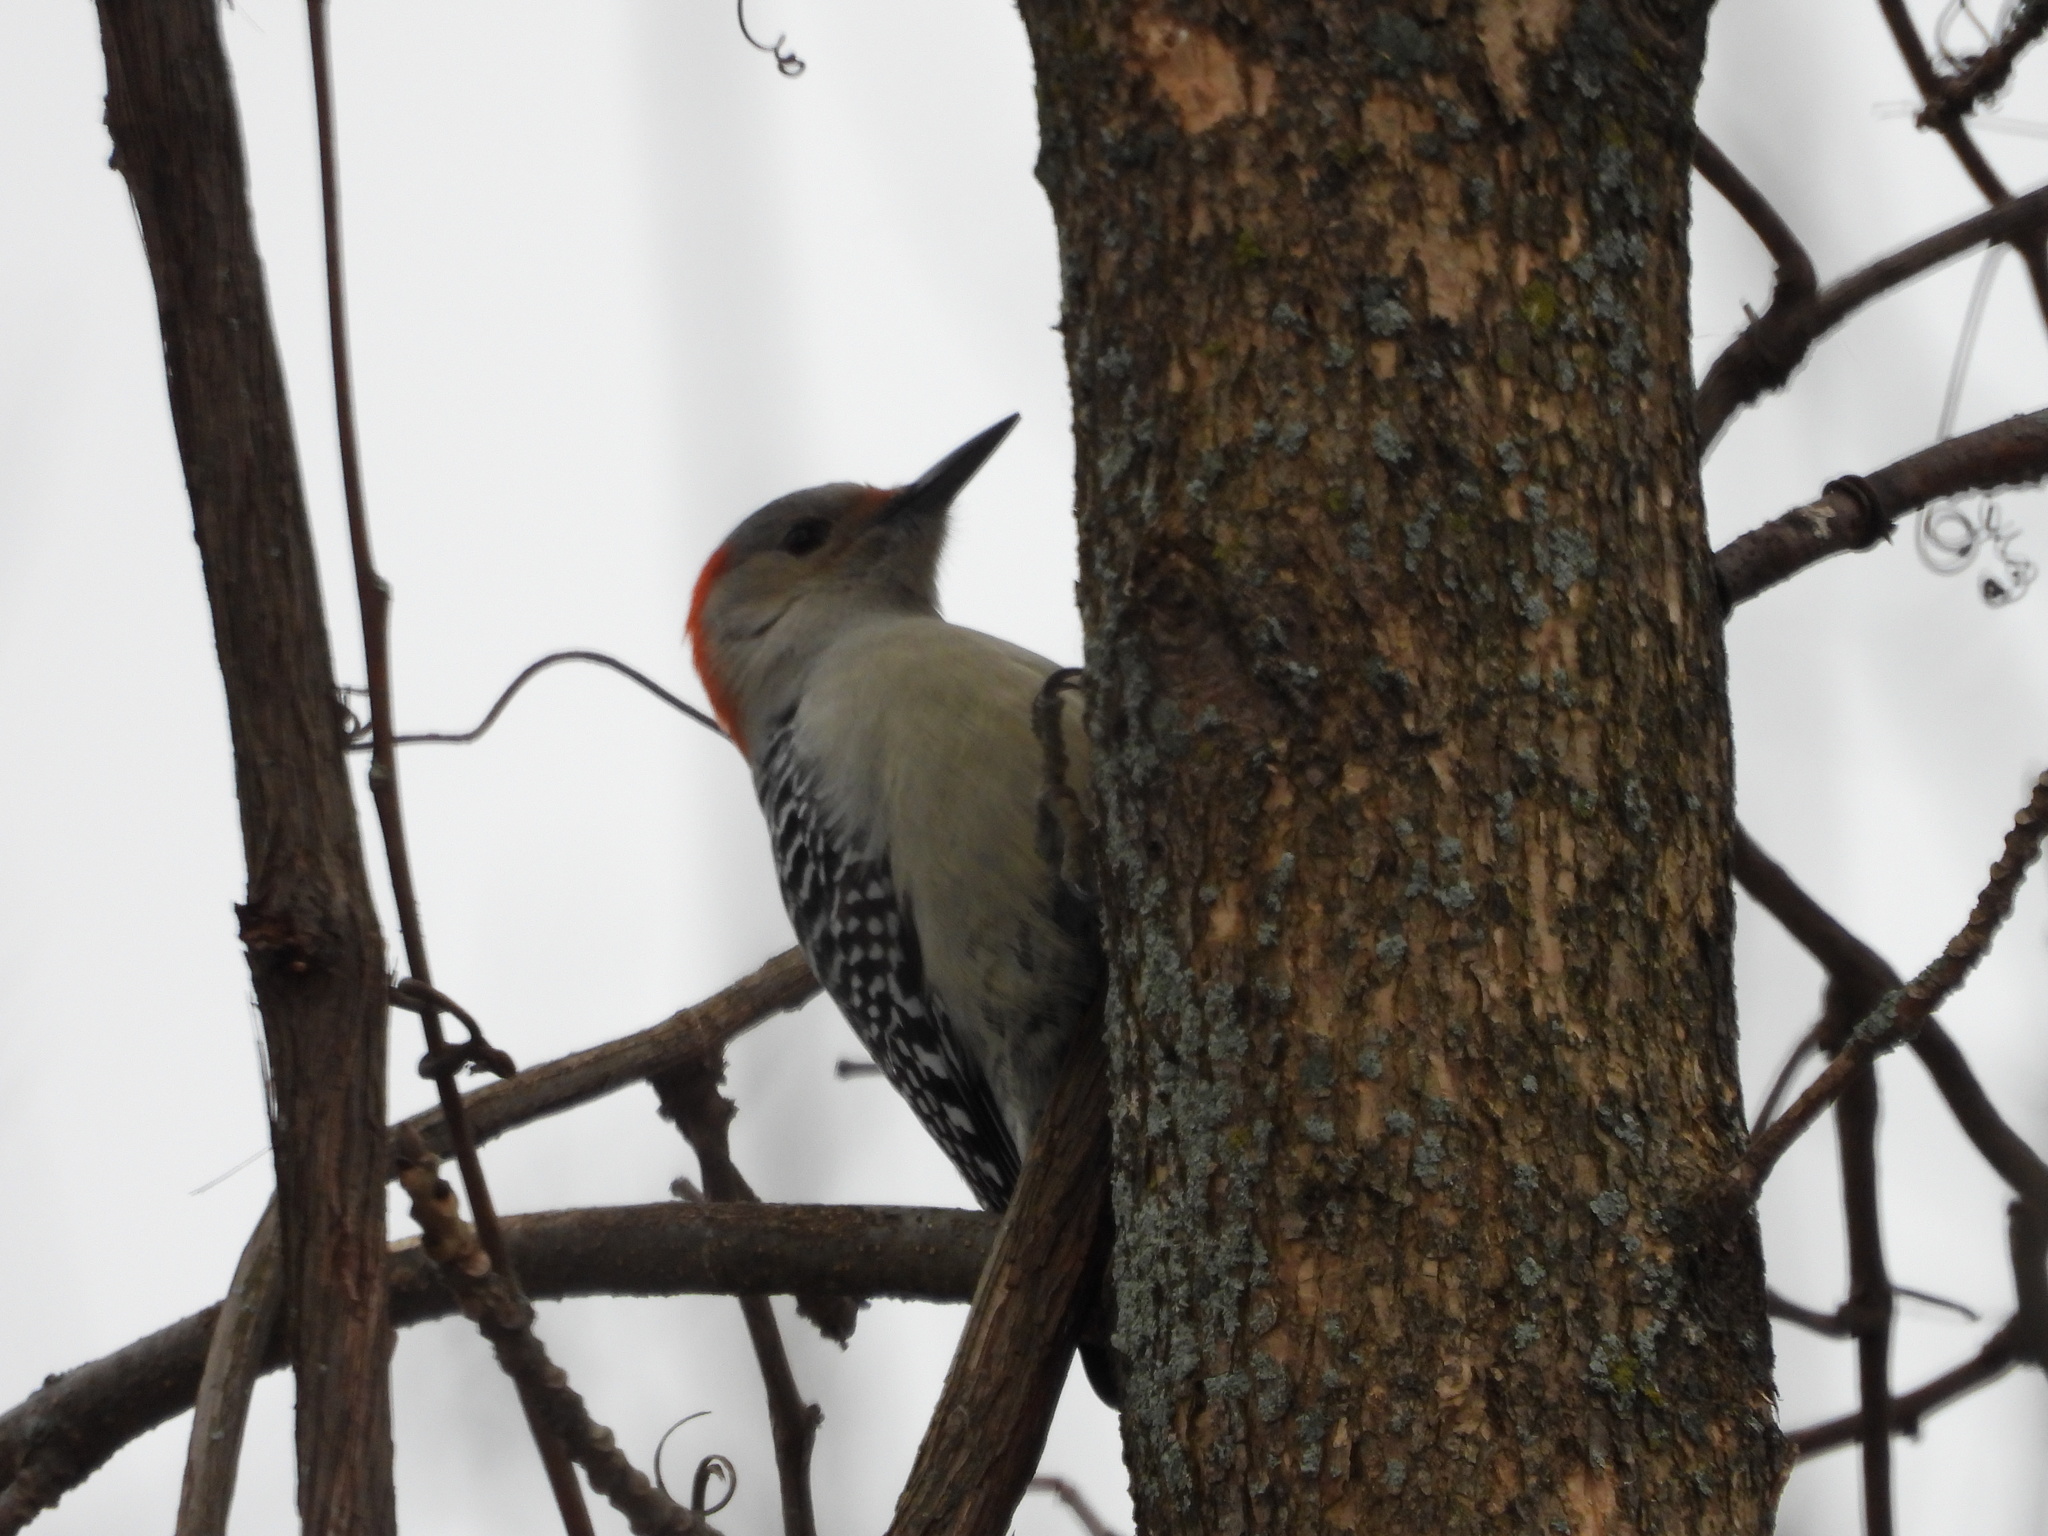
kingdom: Animalia
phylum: Chordata
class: Aves
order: Piciformes
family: Picidae
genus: Melanerpes
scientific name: Melanerpes carolinus
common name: Red-bellied woodpecker
